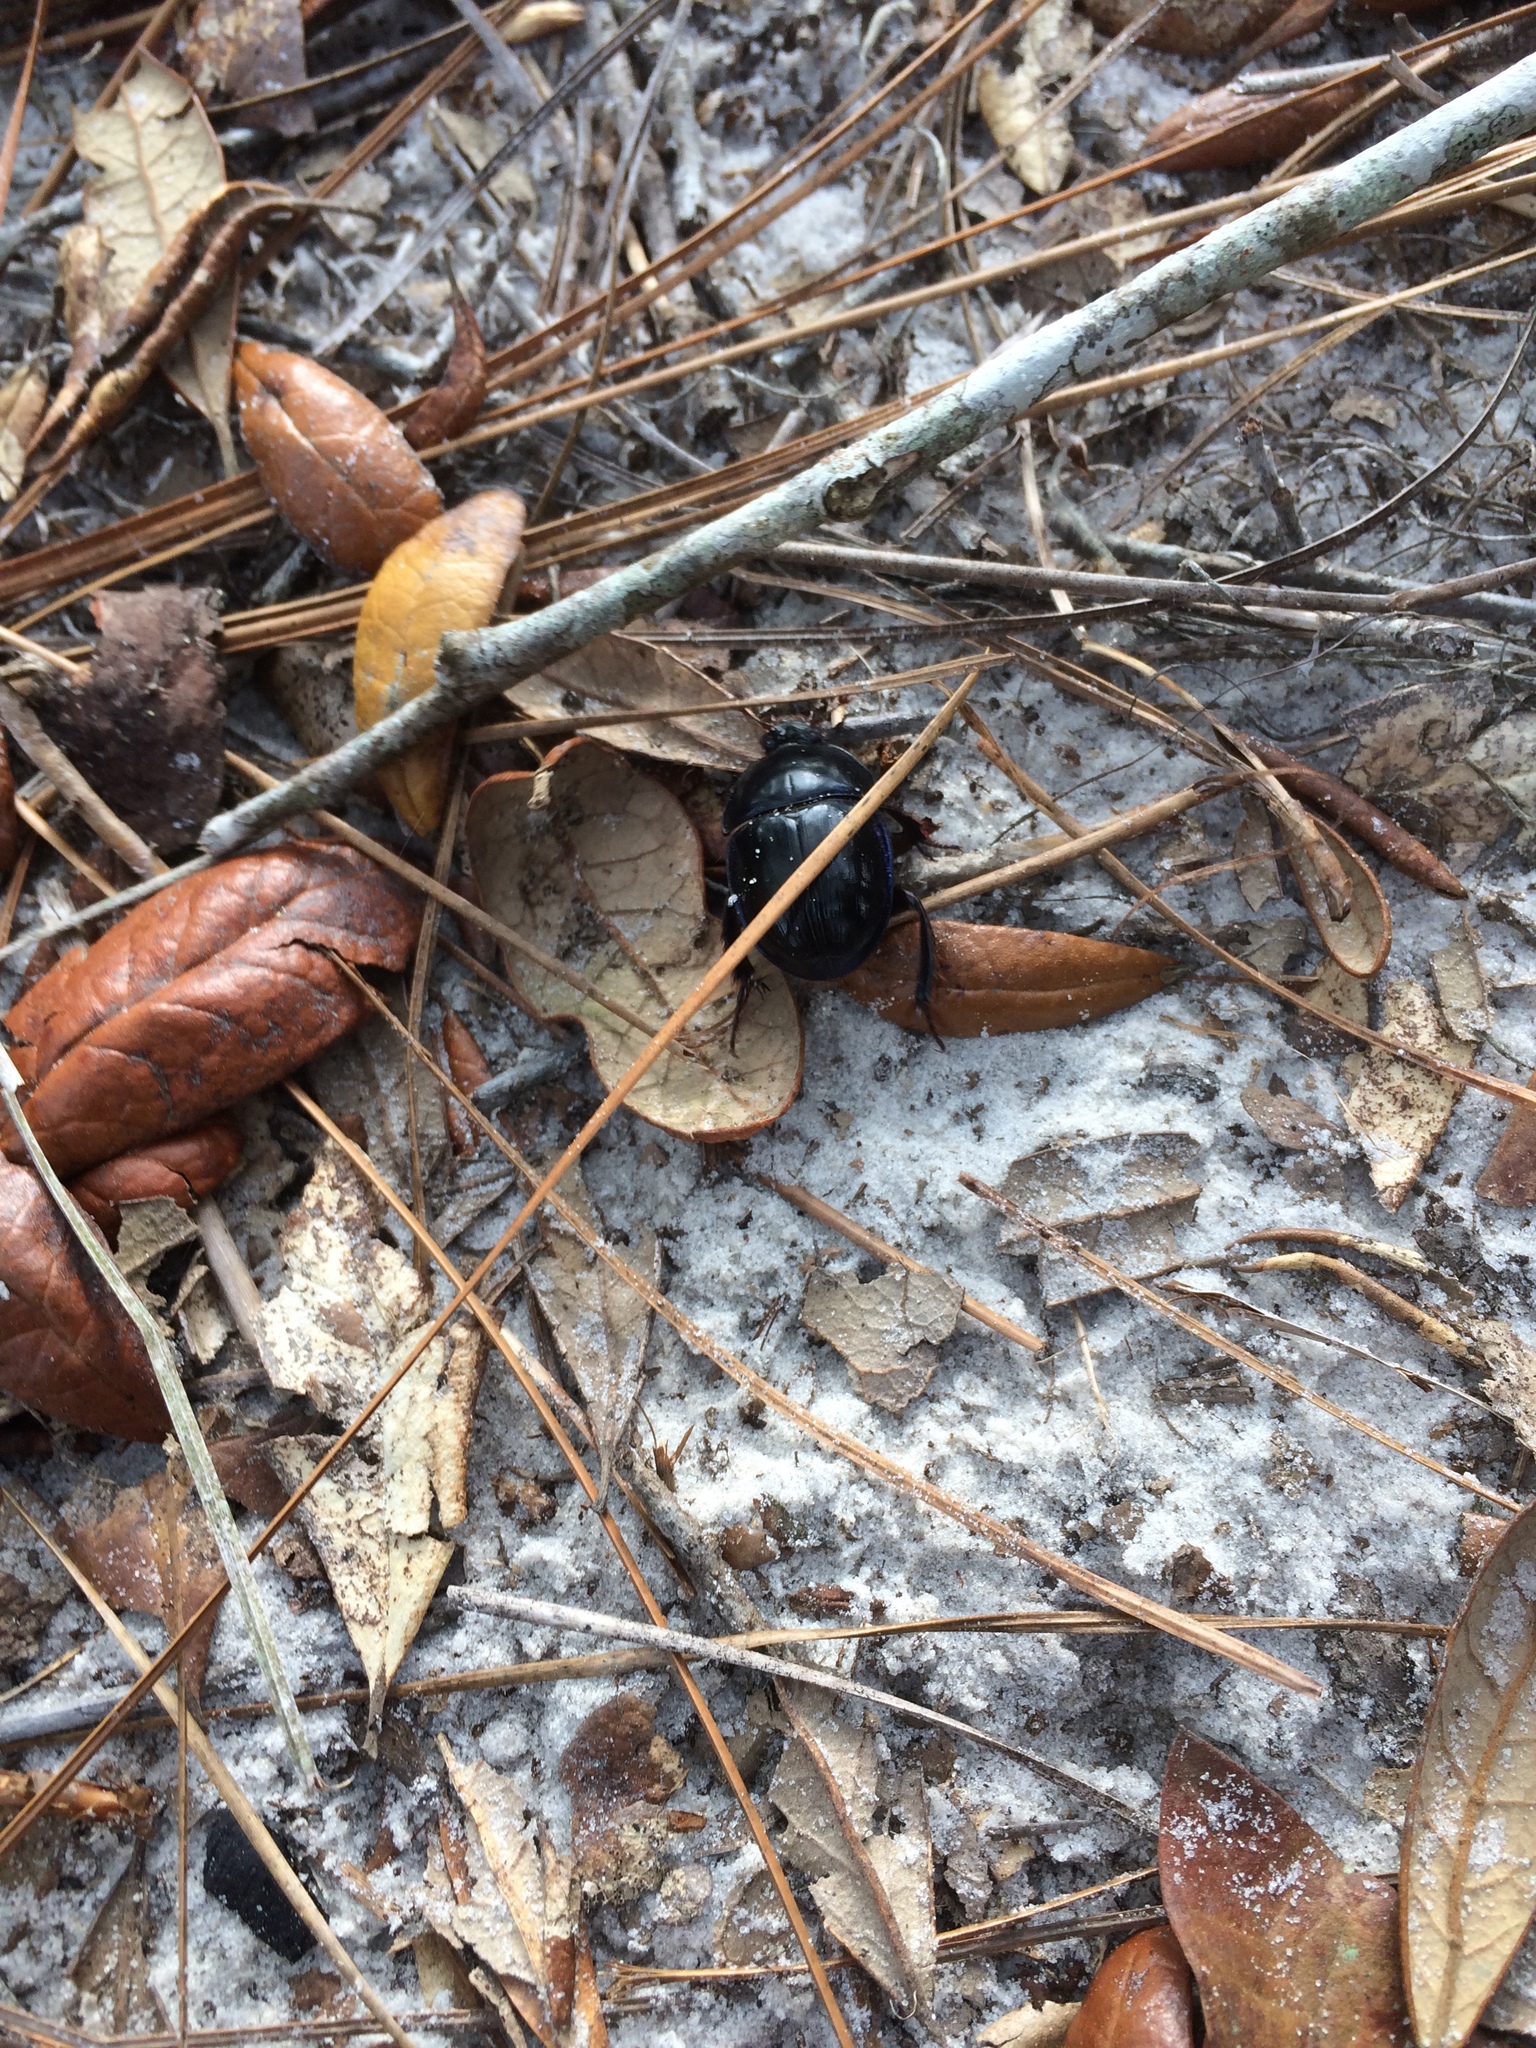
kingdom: Animalia
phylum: Arthropoda
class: Insecta
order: Coleoptera
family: Geotrupidae
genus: Peltotrupes
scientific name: Peltotrupes profundus
